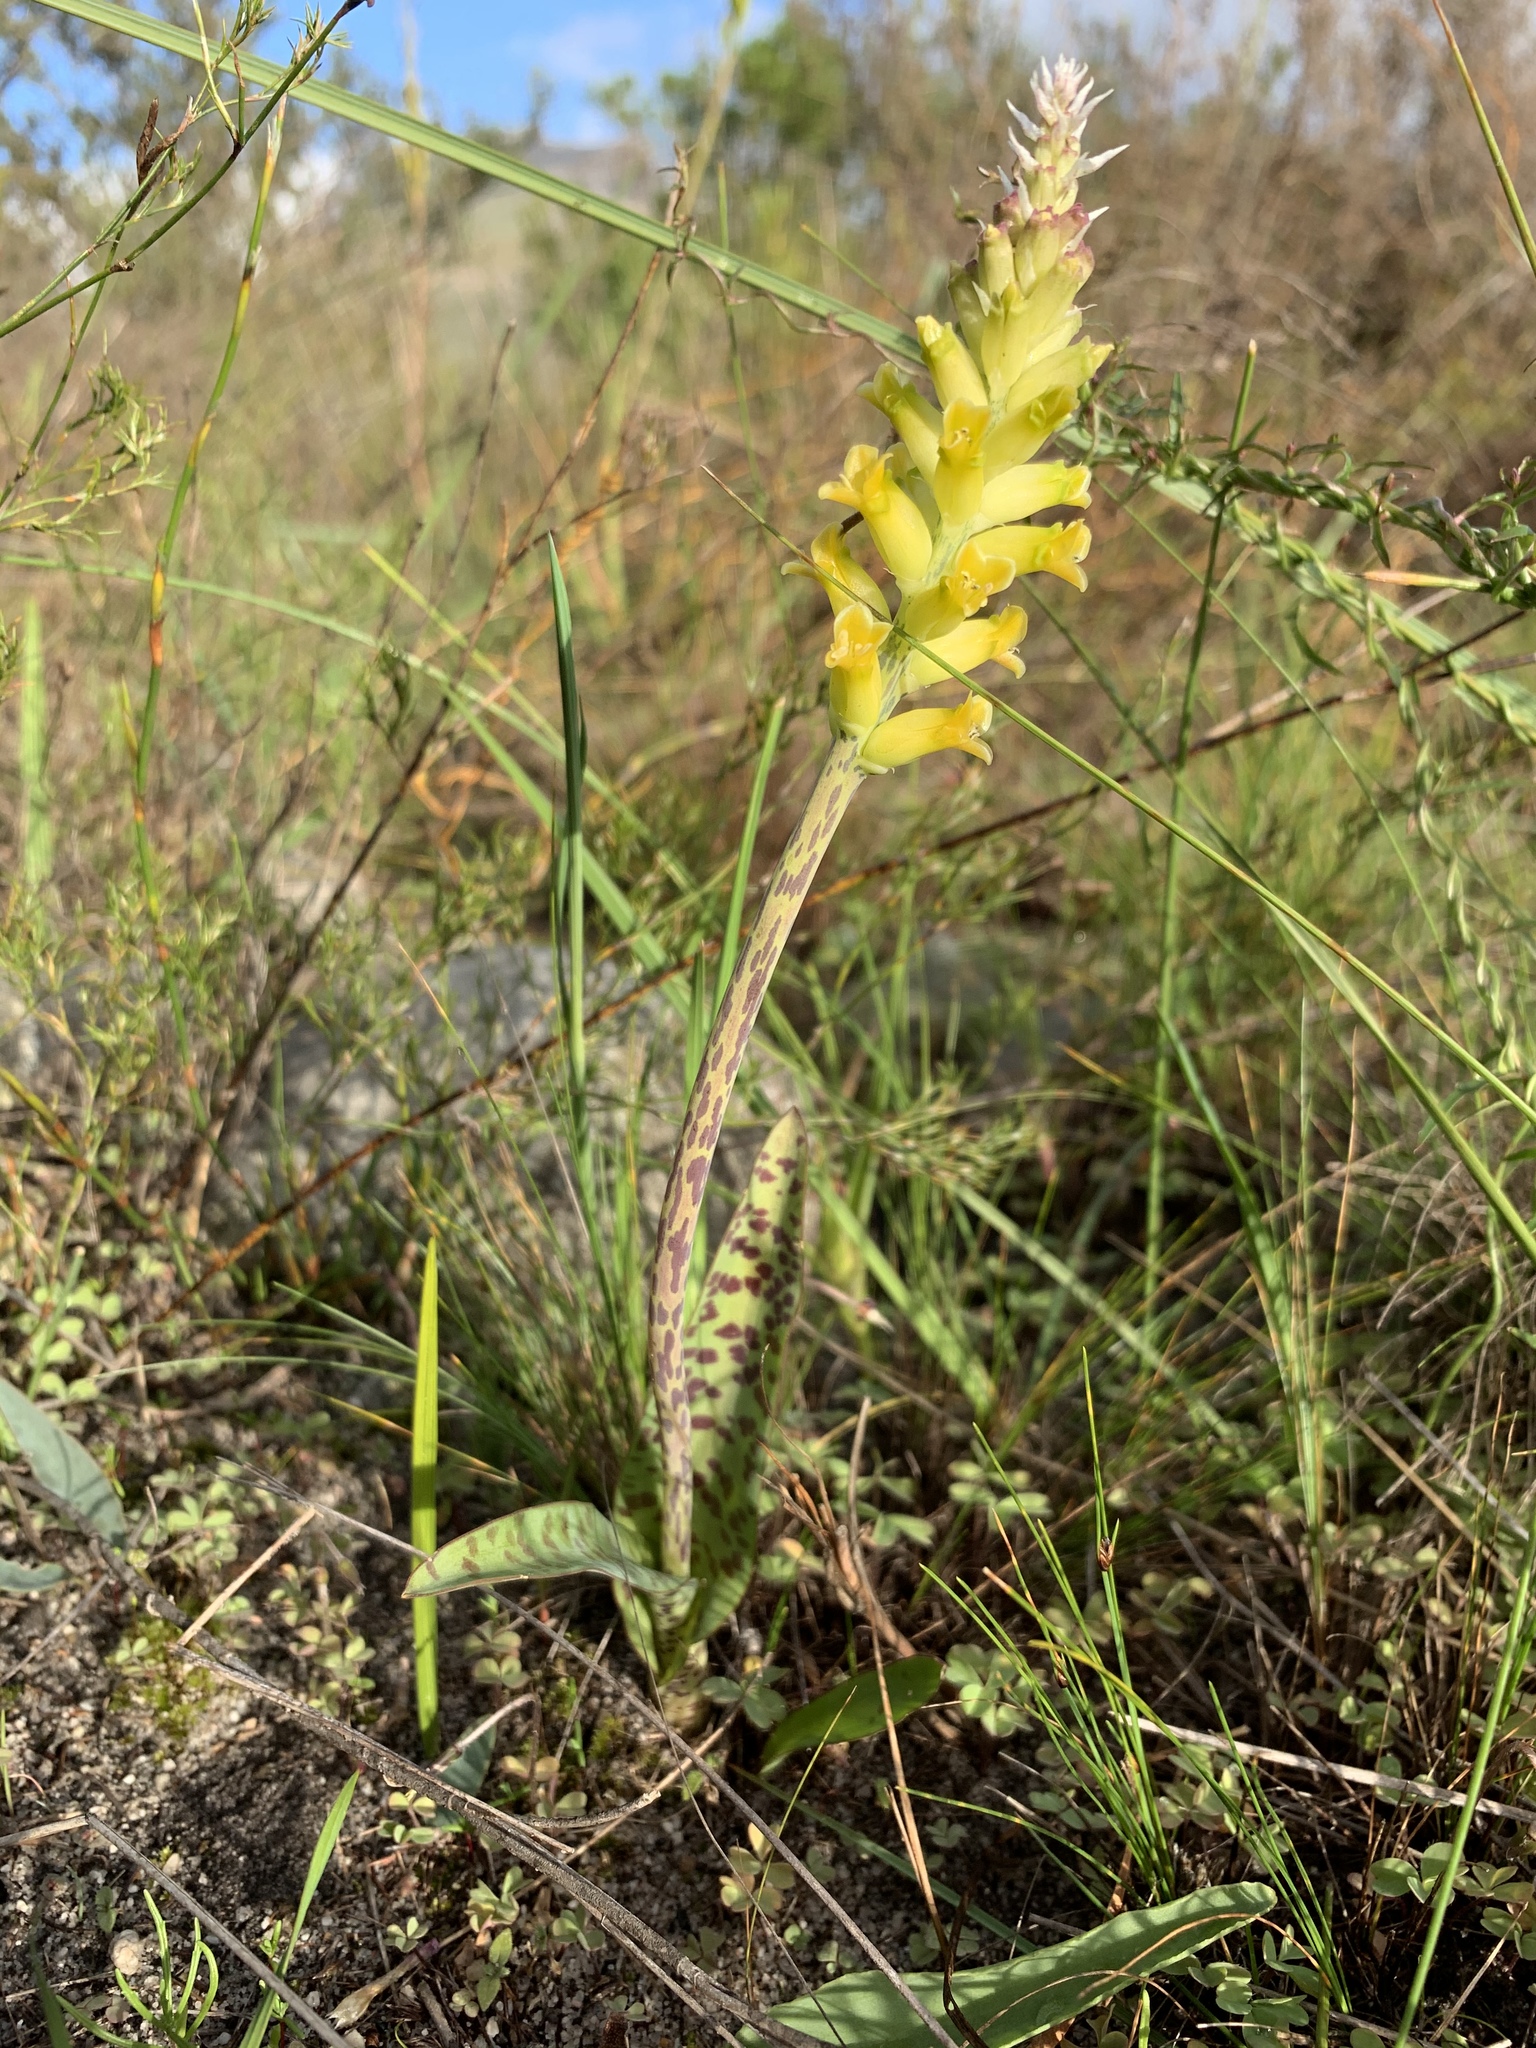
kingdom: Plantae
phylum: Tracheophyta
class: Liliopsida
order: Asparagales
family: Asparagaceae
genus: Lachenalia
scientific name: Lachenalia lutea
